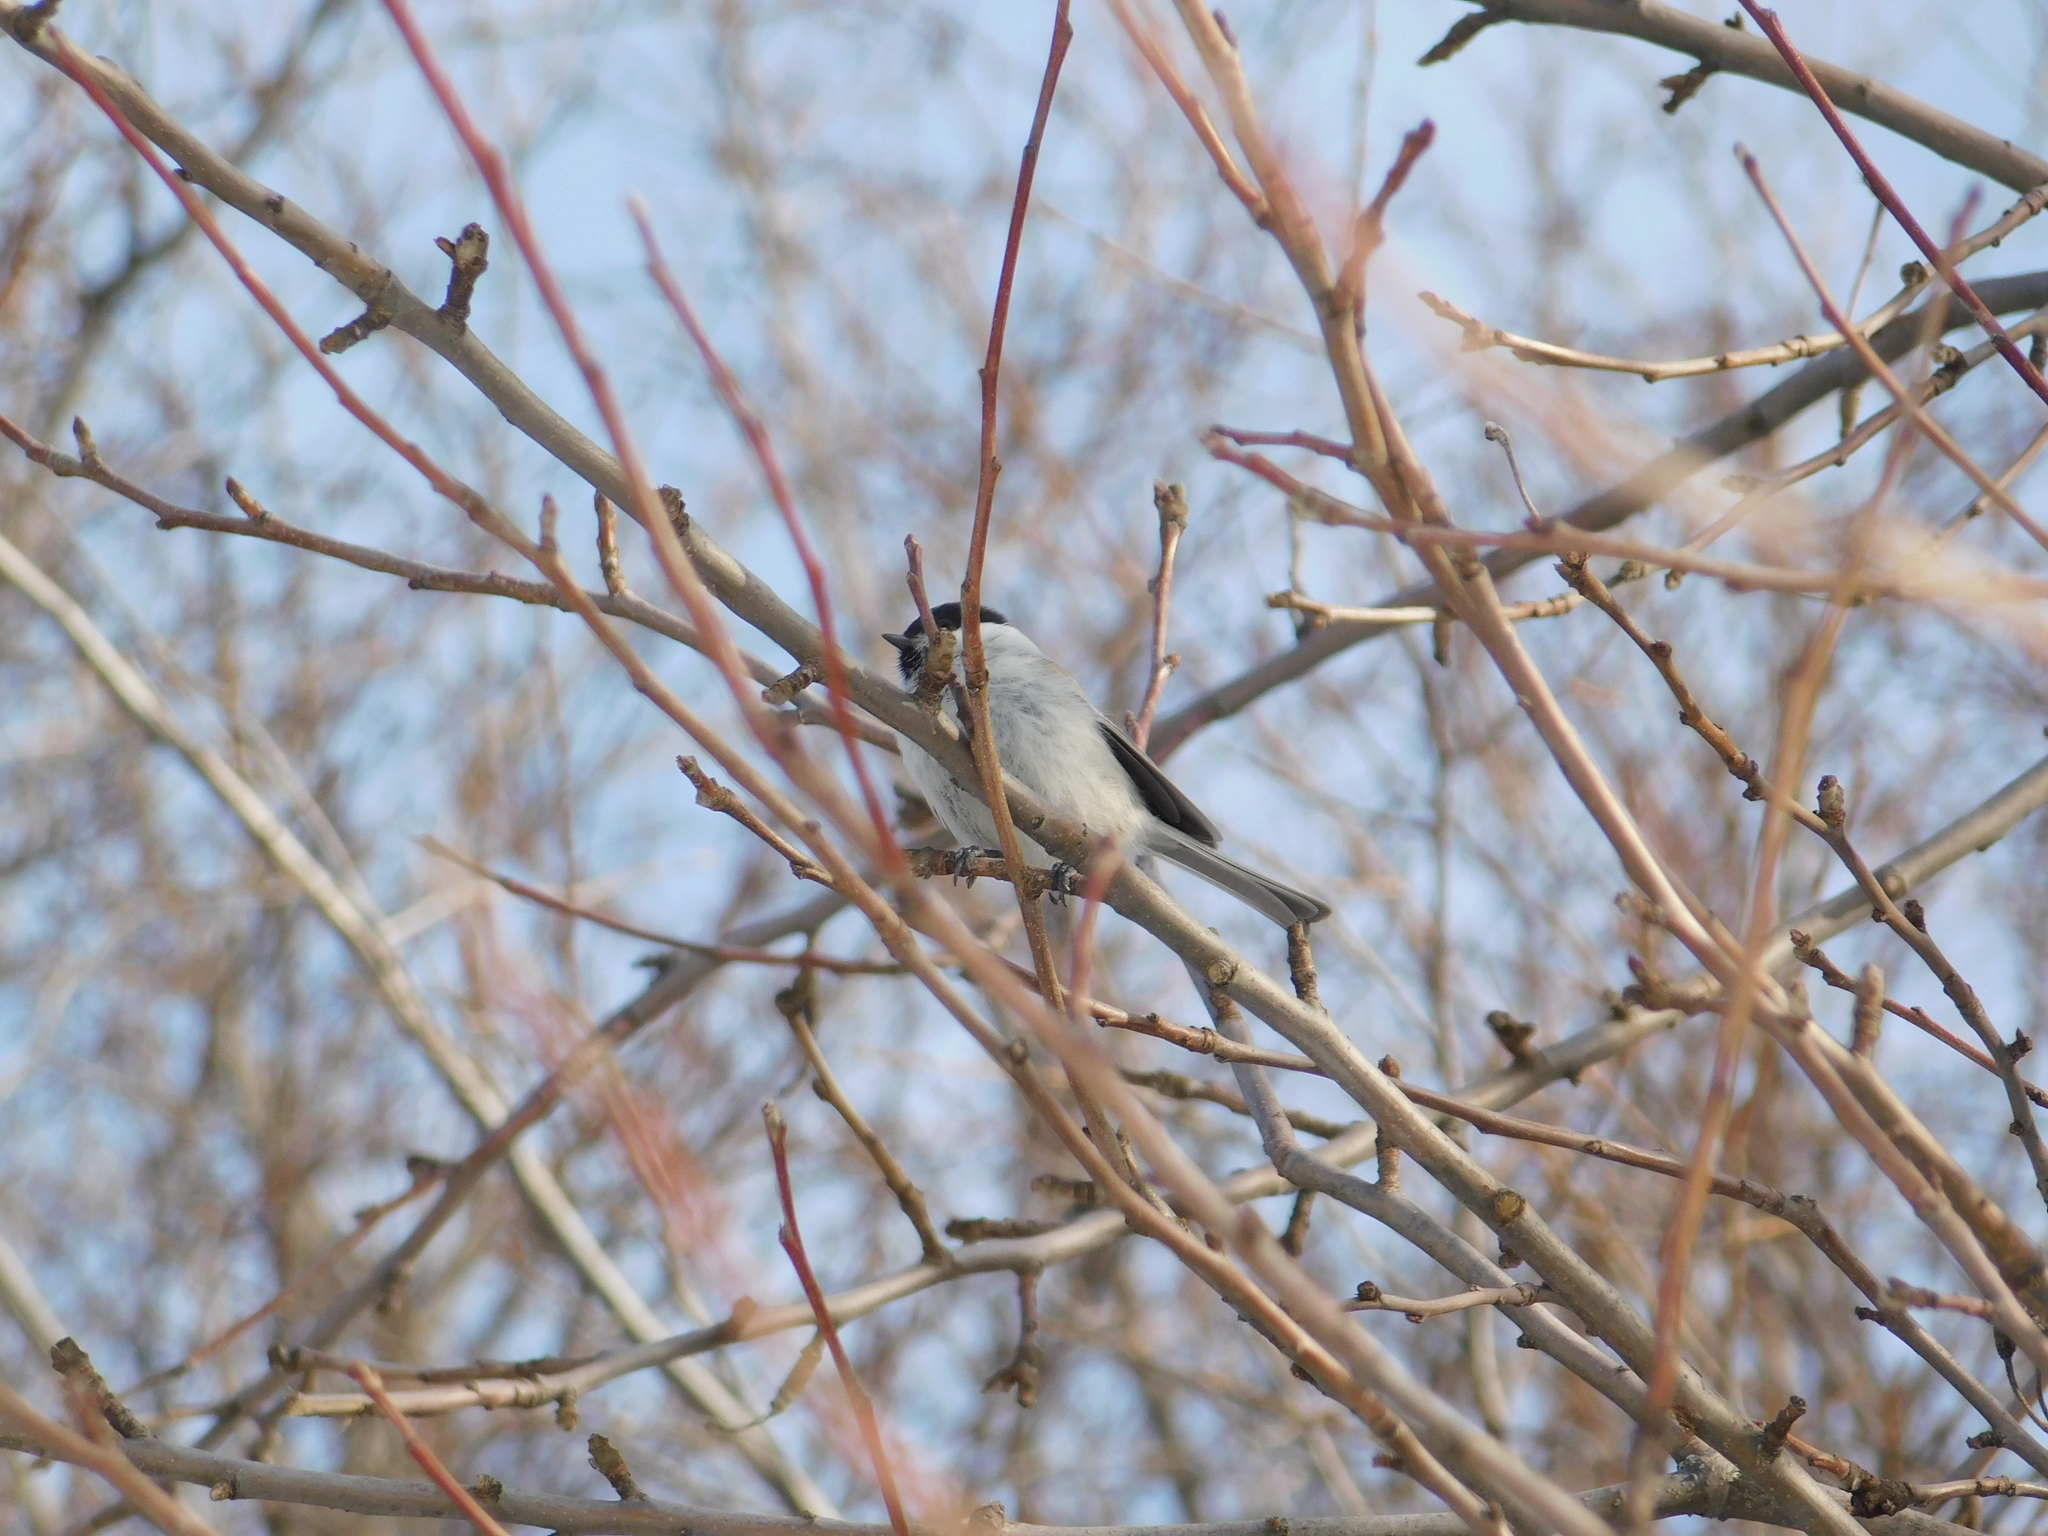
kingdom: Animalia
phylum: Chordata
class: Aves
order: Passeriformes
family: Paridae
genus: Poecile
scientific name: Poecile palustris
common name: Marsh tit
